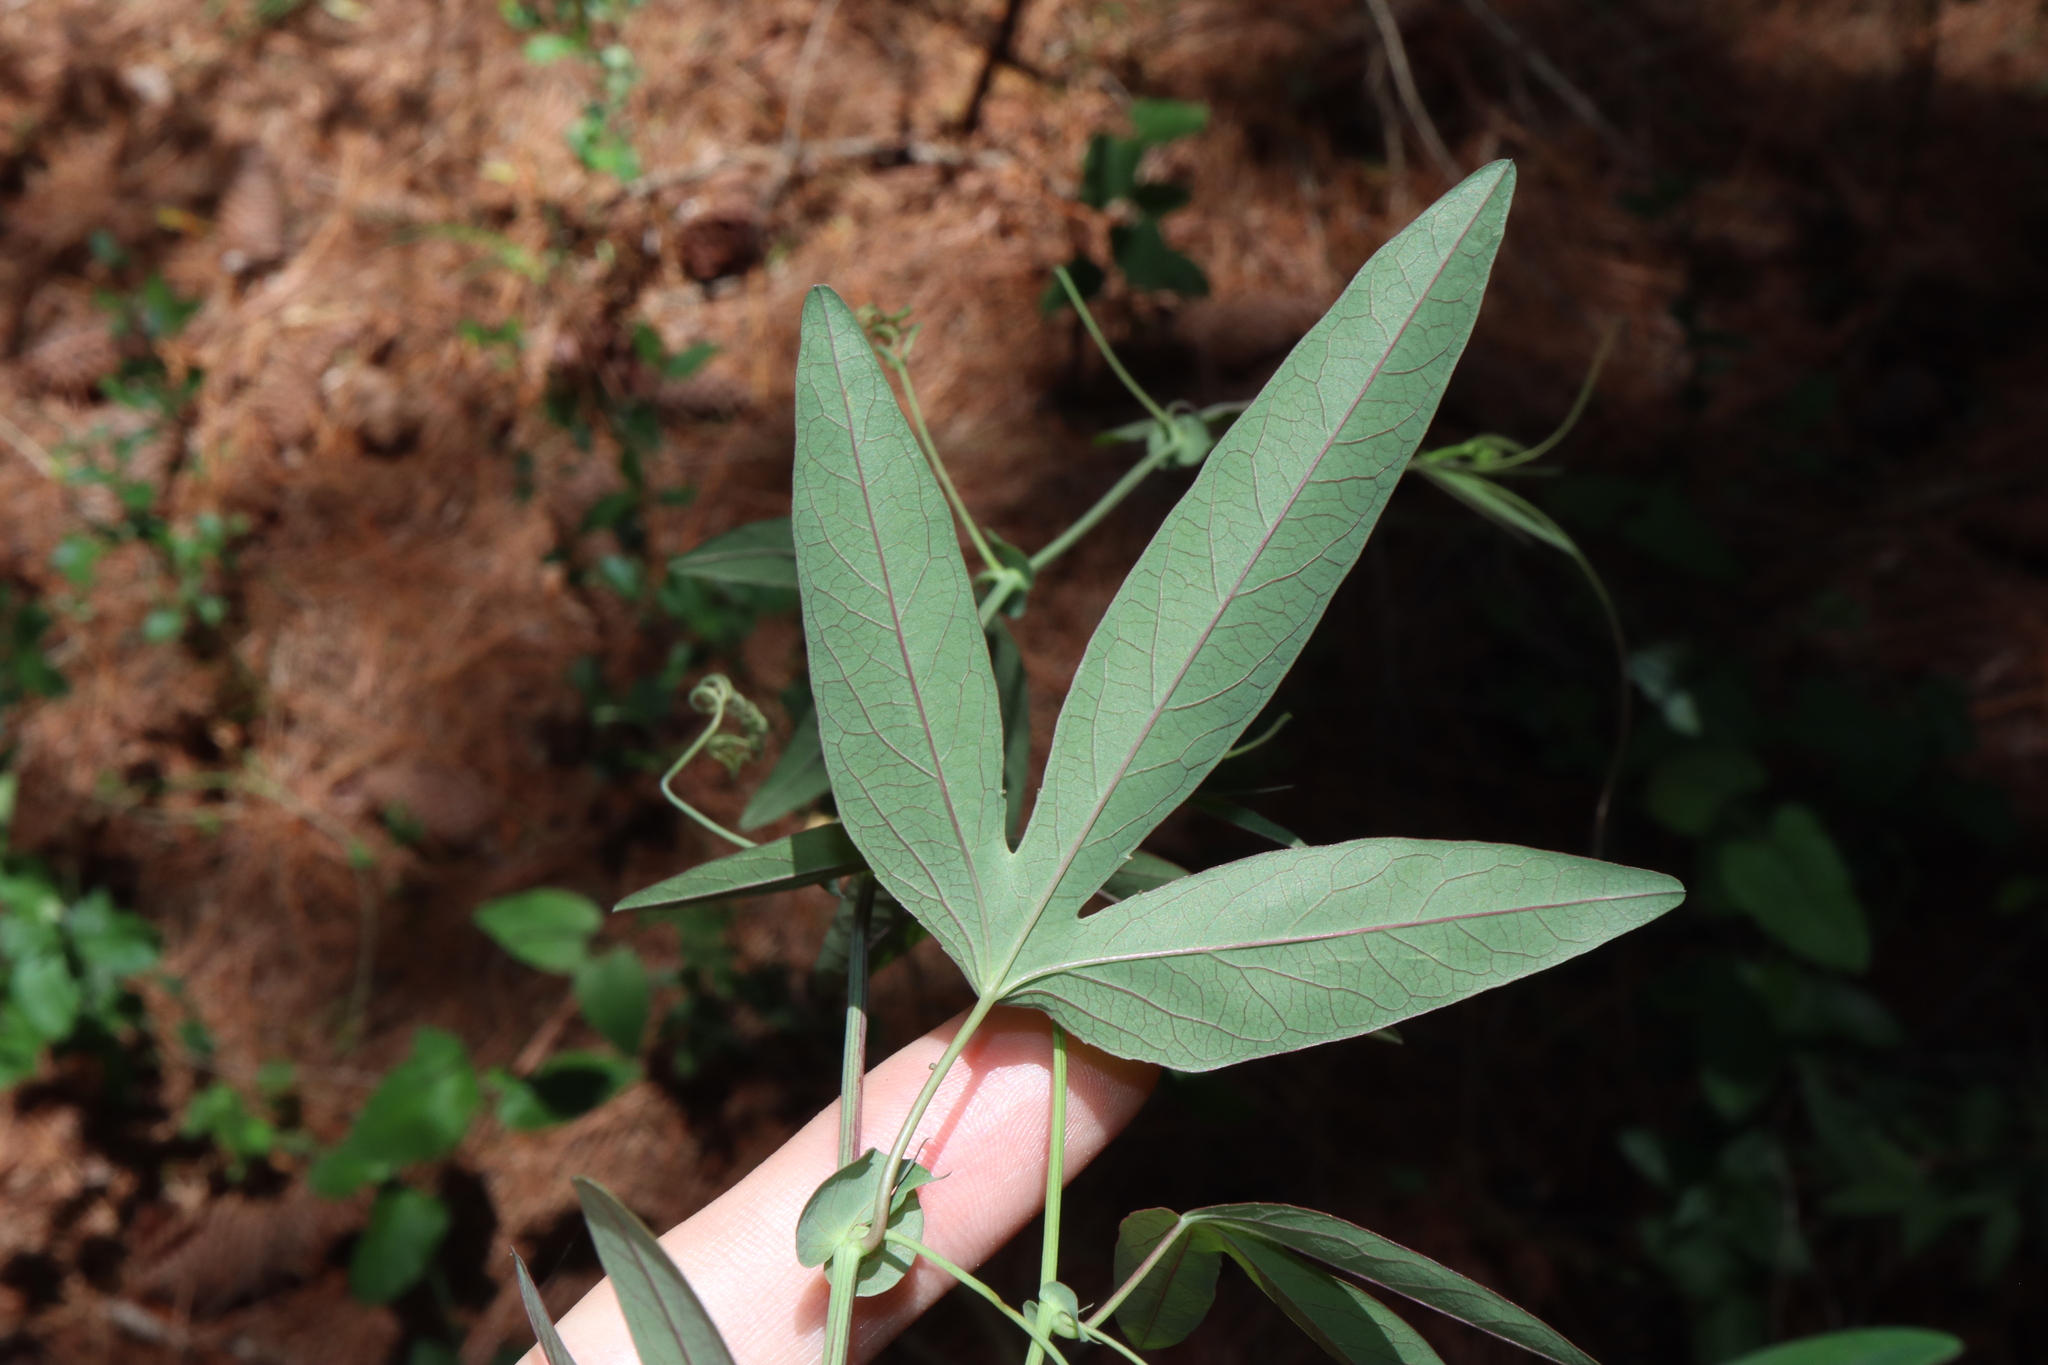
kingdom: Plantae
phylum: Tracheophyta
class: Magnoliopsida
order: Malpighiales
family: Passifloraceae
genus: Passiflora
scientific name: Passiflora caerulea
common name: Blue passionflower
